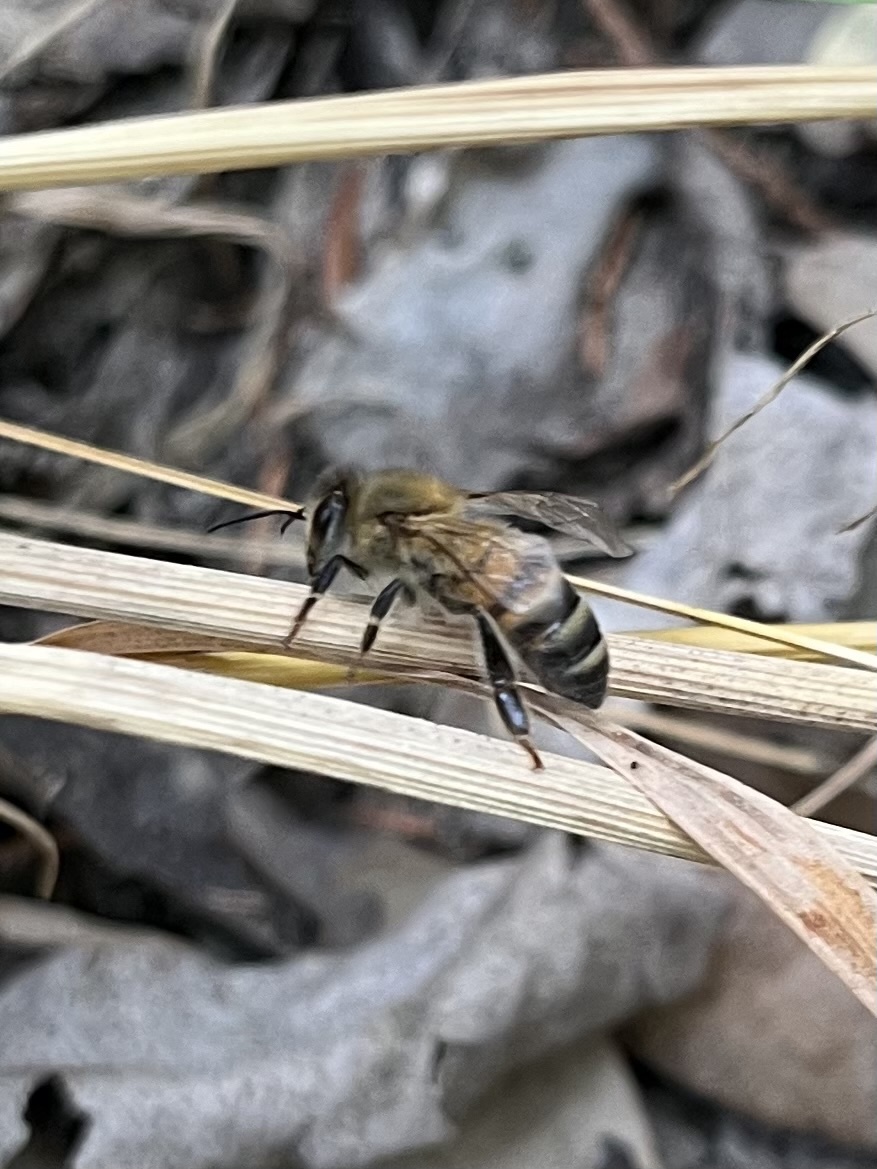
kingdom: Animalia
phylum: Arthropoda
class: Insecta
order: Hymenoptera
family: Apidae
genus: Apis
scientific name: Apis mellifera
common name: Honey bee
